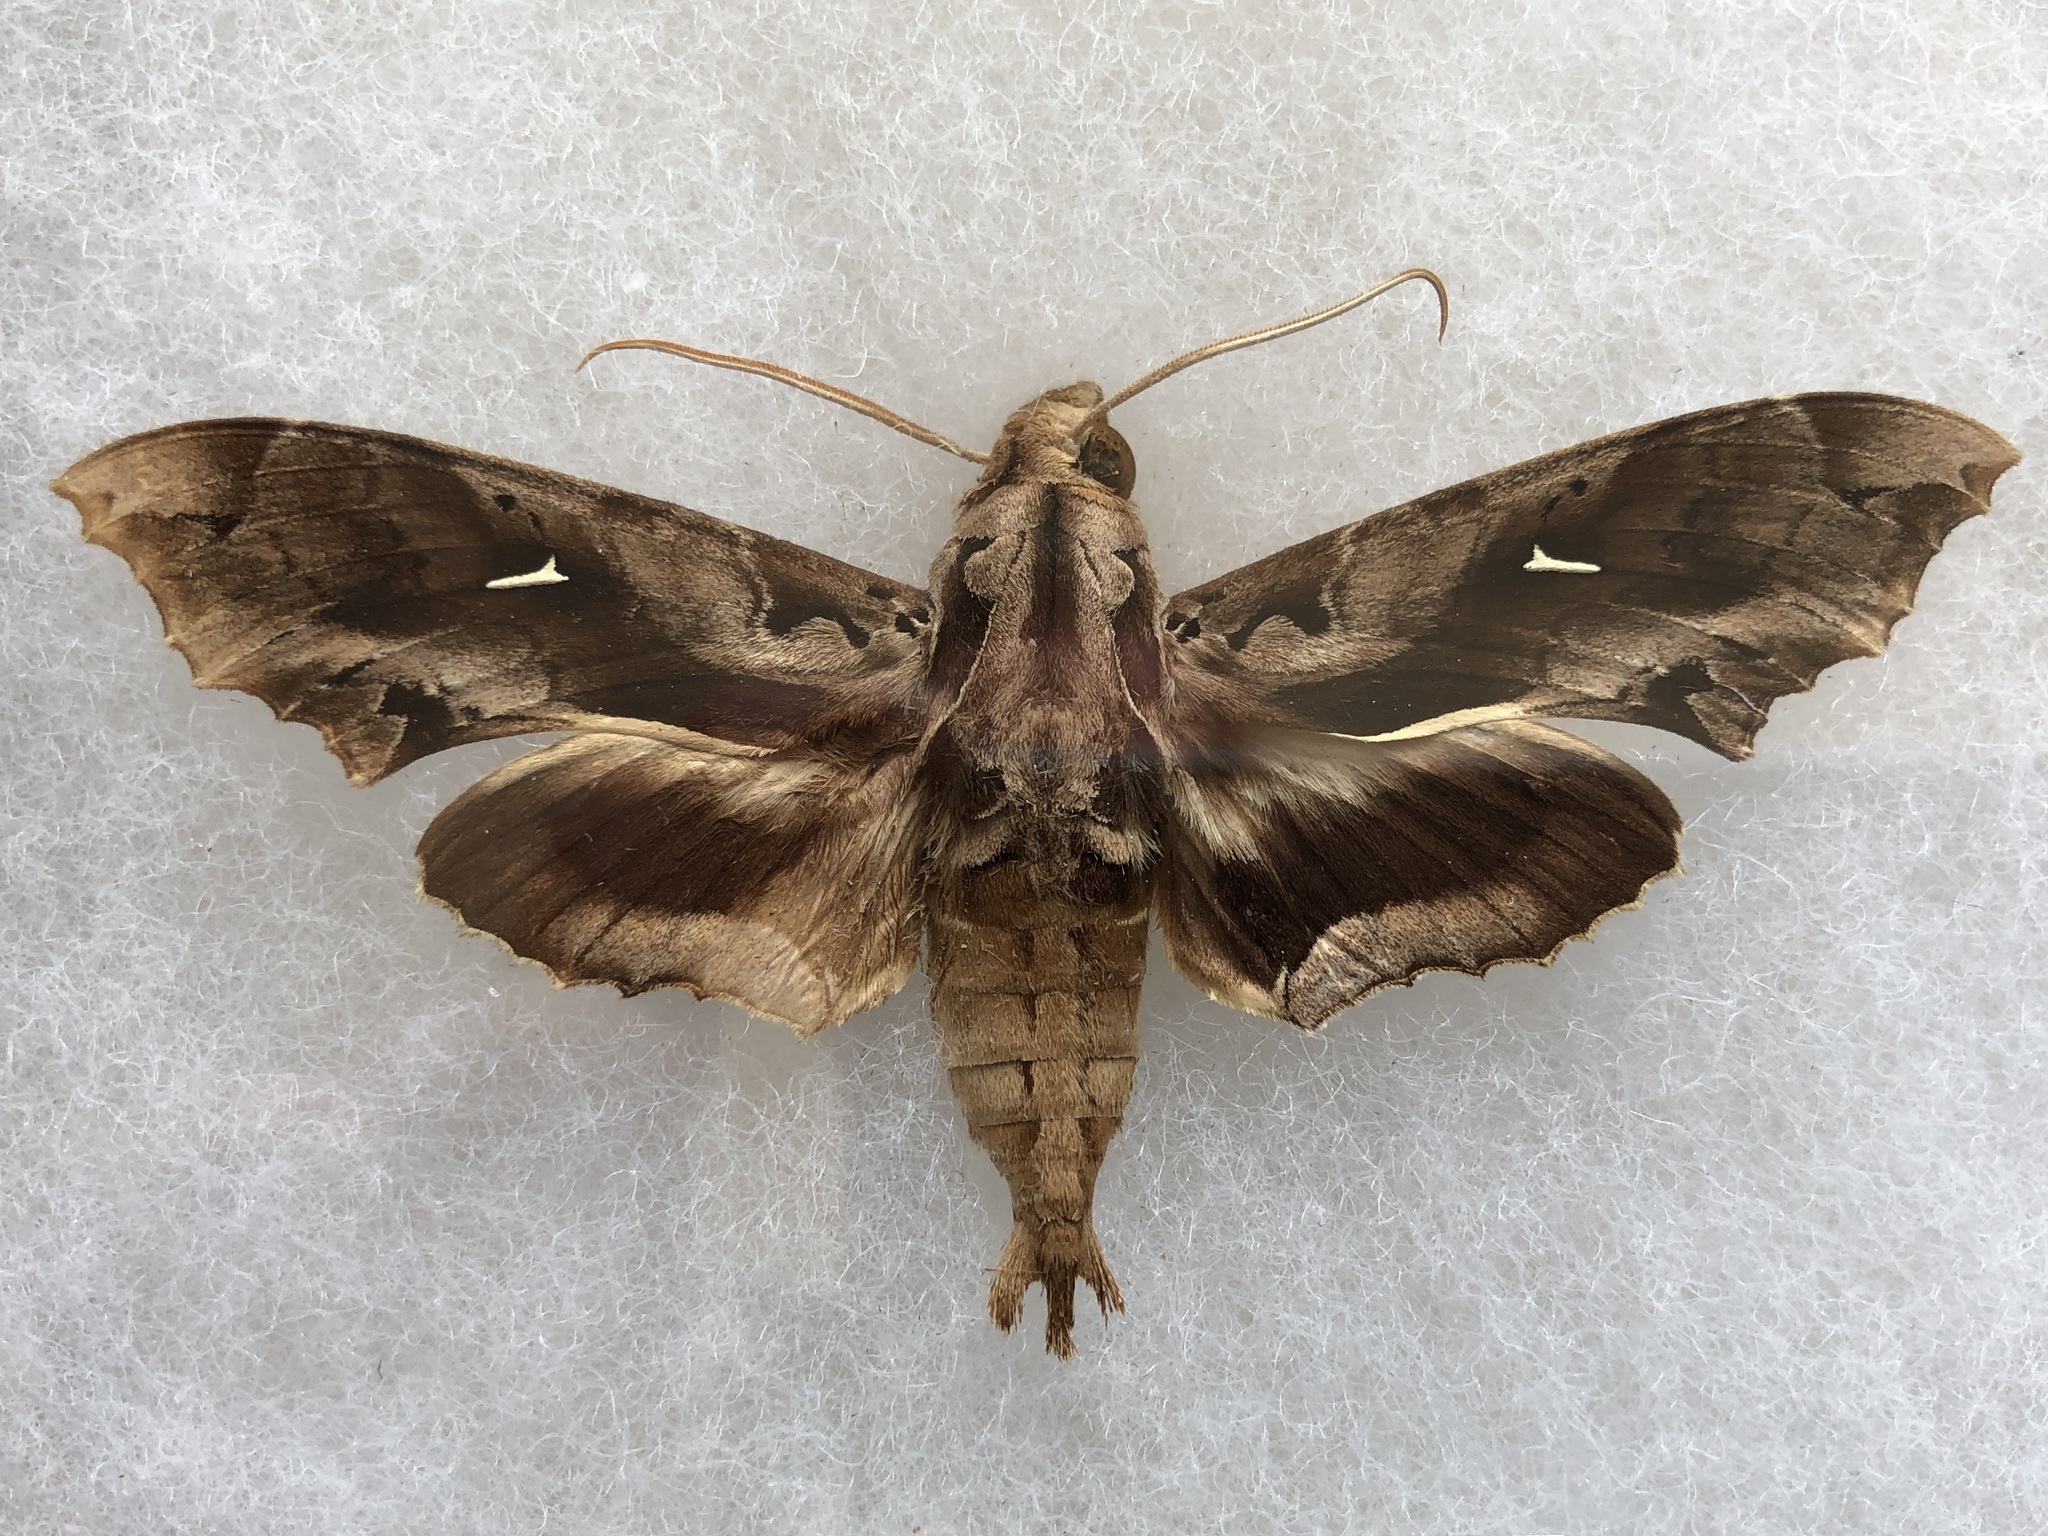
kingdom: Animalia
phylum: Arthropoda
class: Insecta
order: Lepidoptera
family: Sphingidae
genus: Hemeroplanes
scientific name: Hemeroplanes triptolemus
